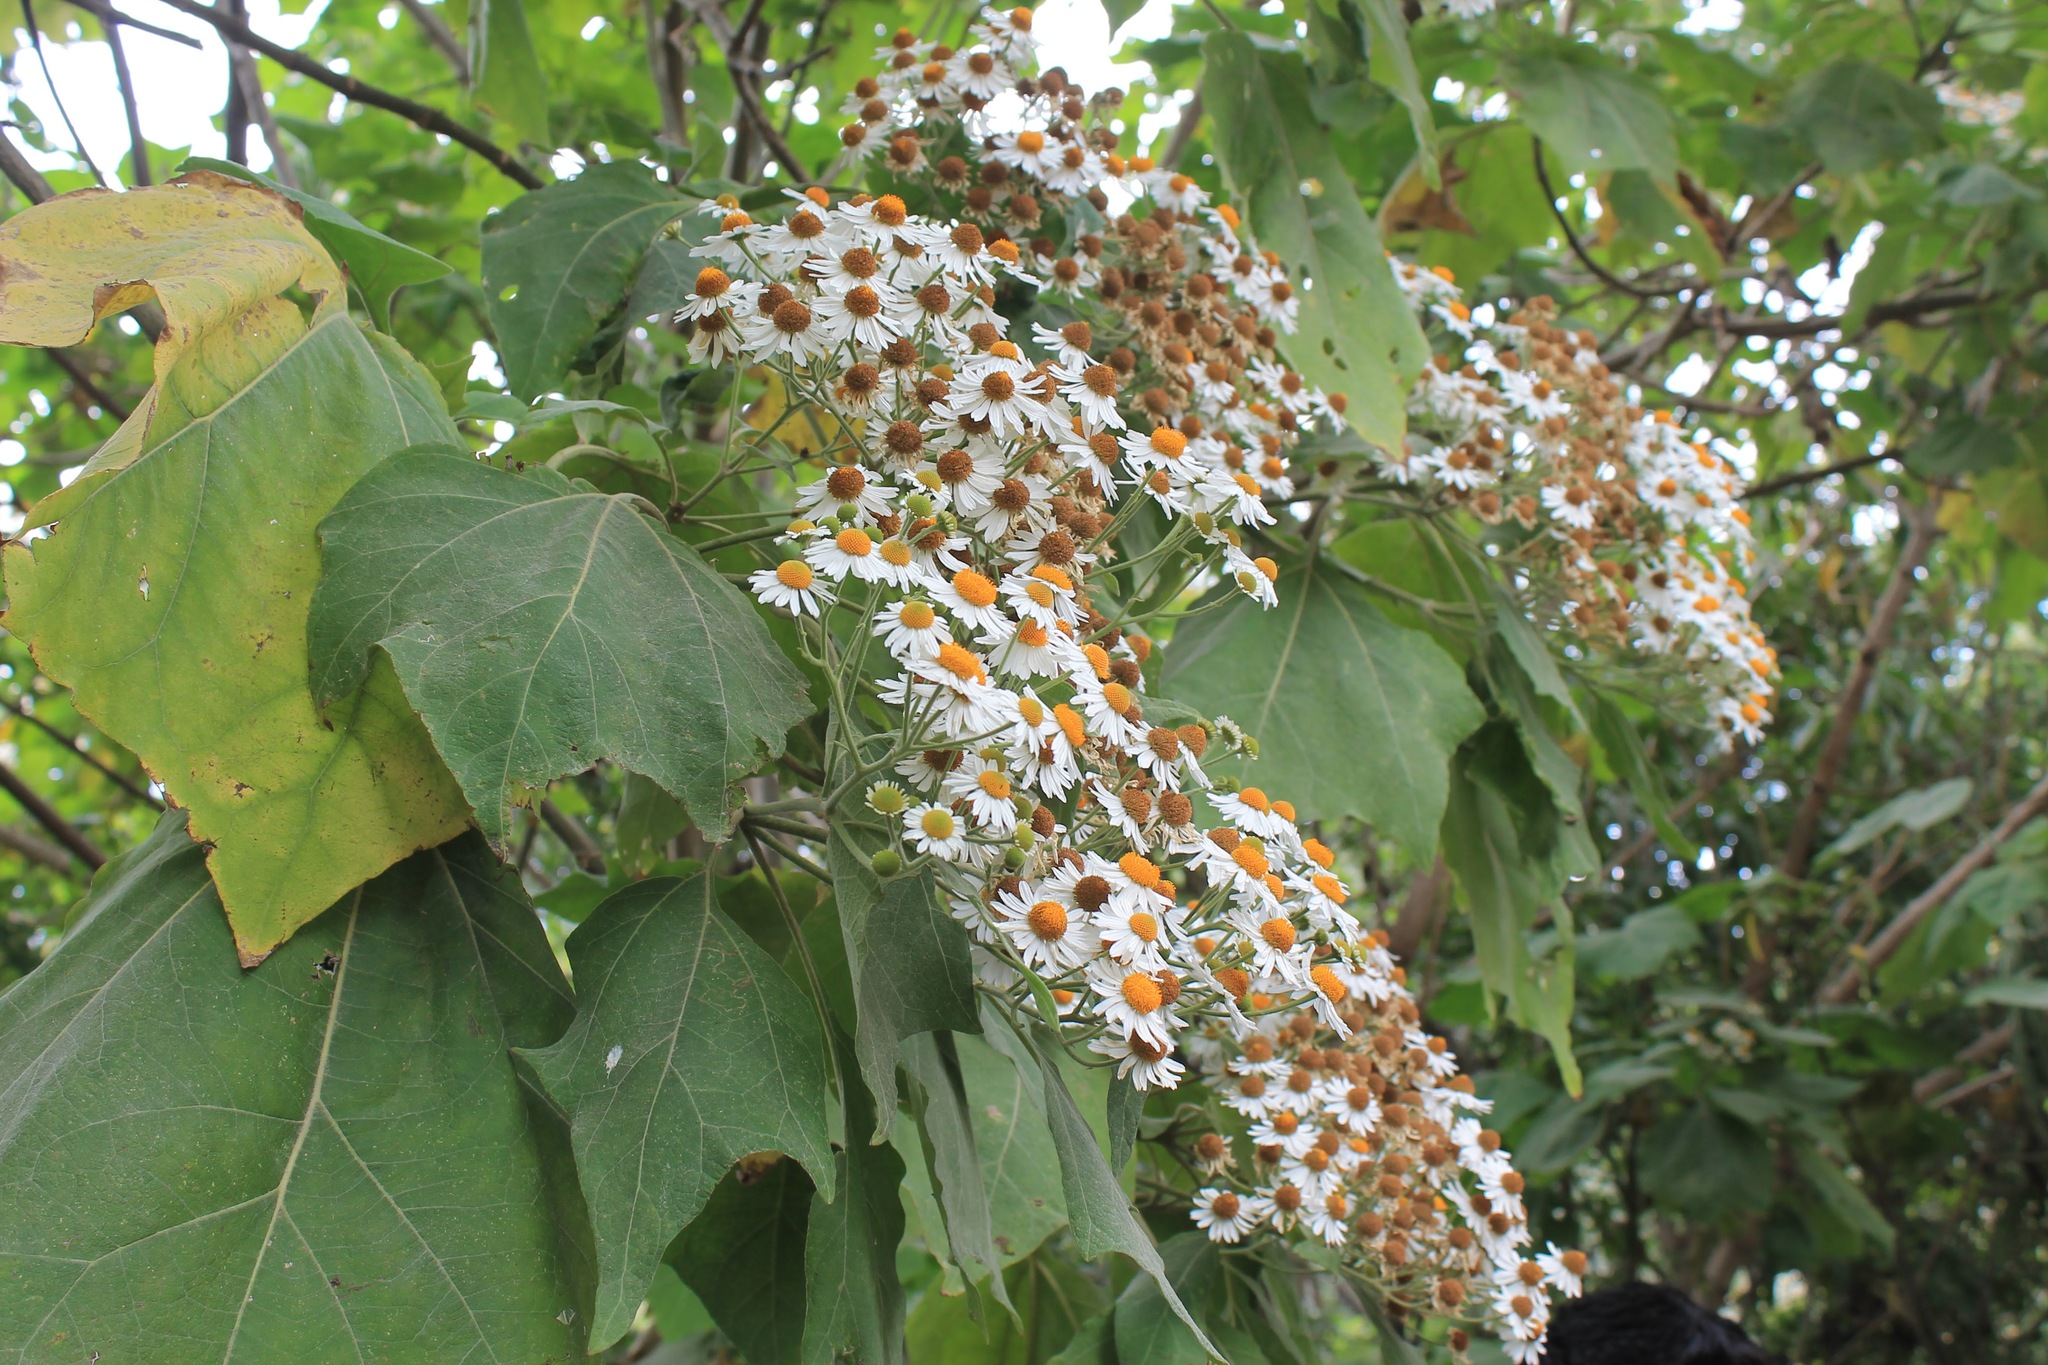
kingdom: Plantae
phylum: Tracheophyta
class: Magnoliopsida
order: Asterales
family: Asteraceae
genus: Podachaenium
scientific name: Podachaenium eminens
